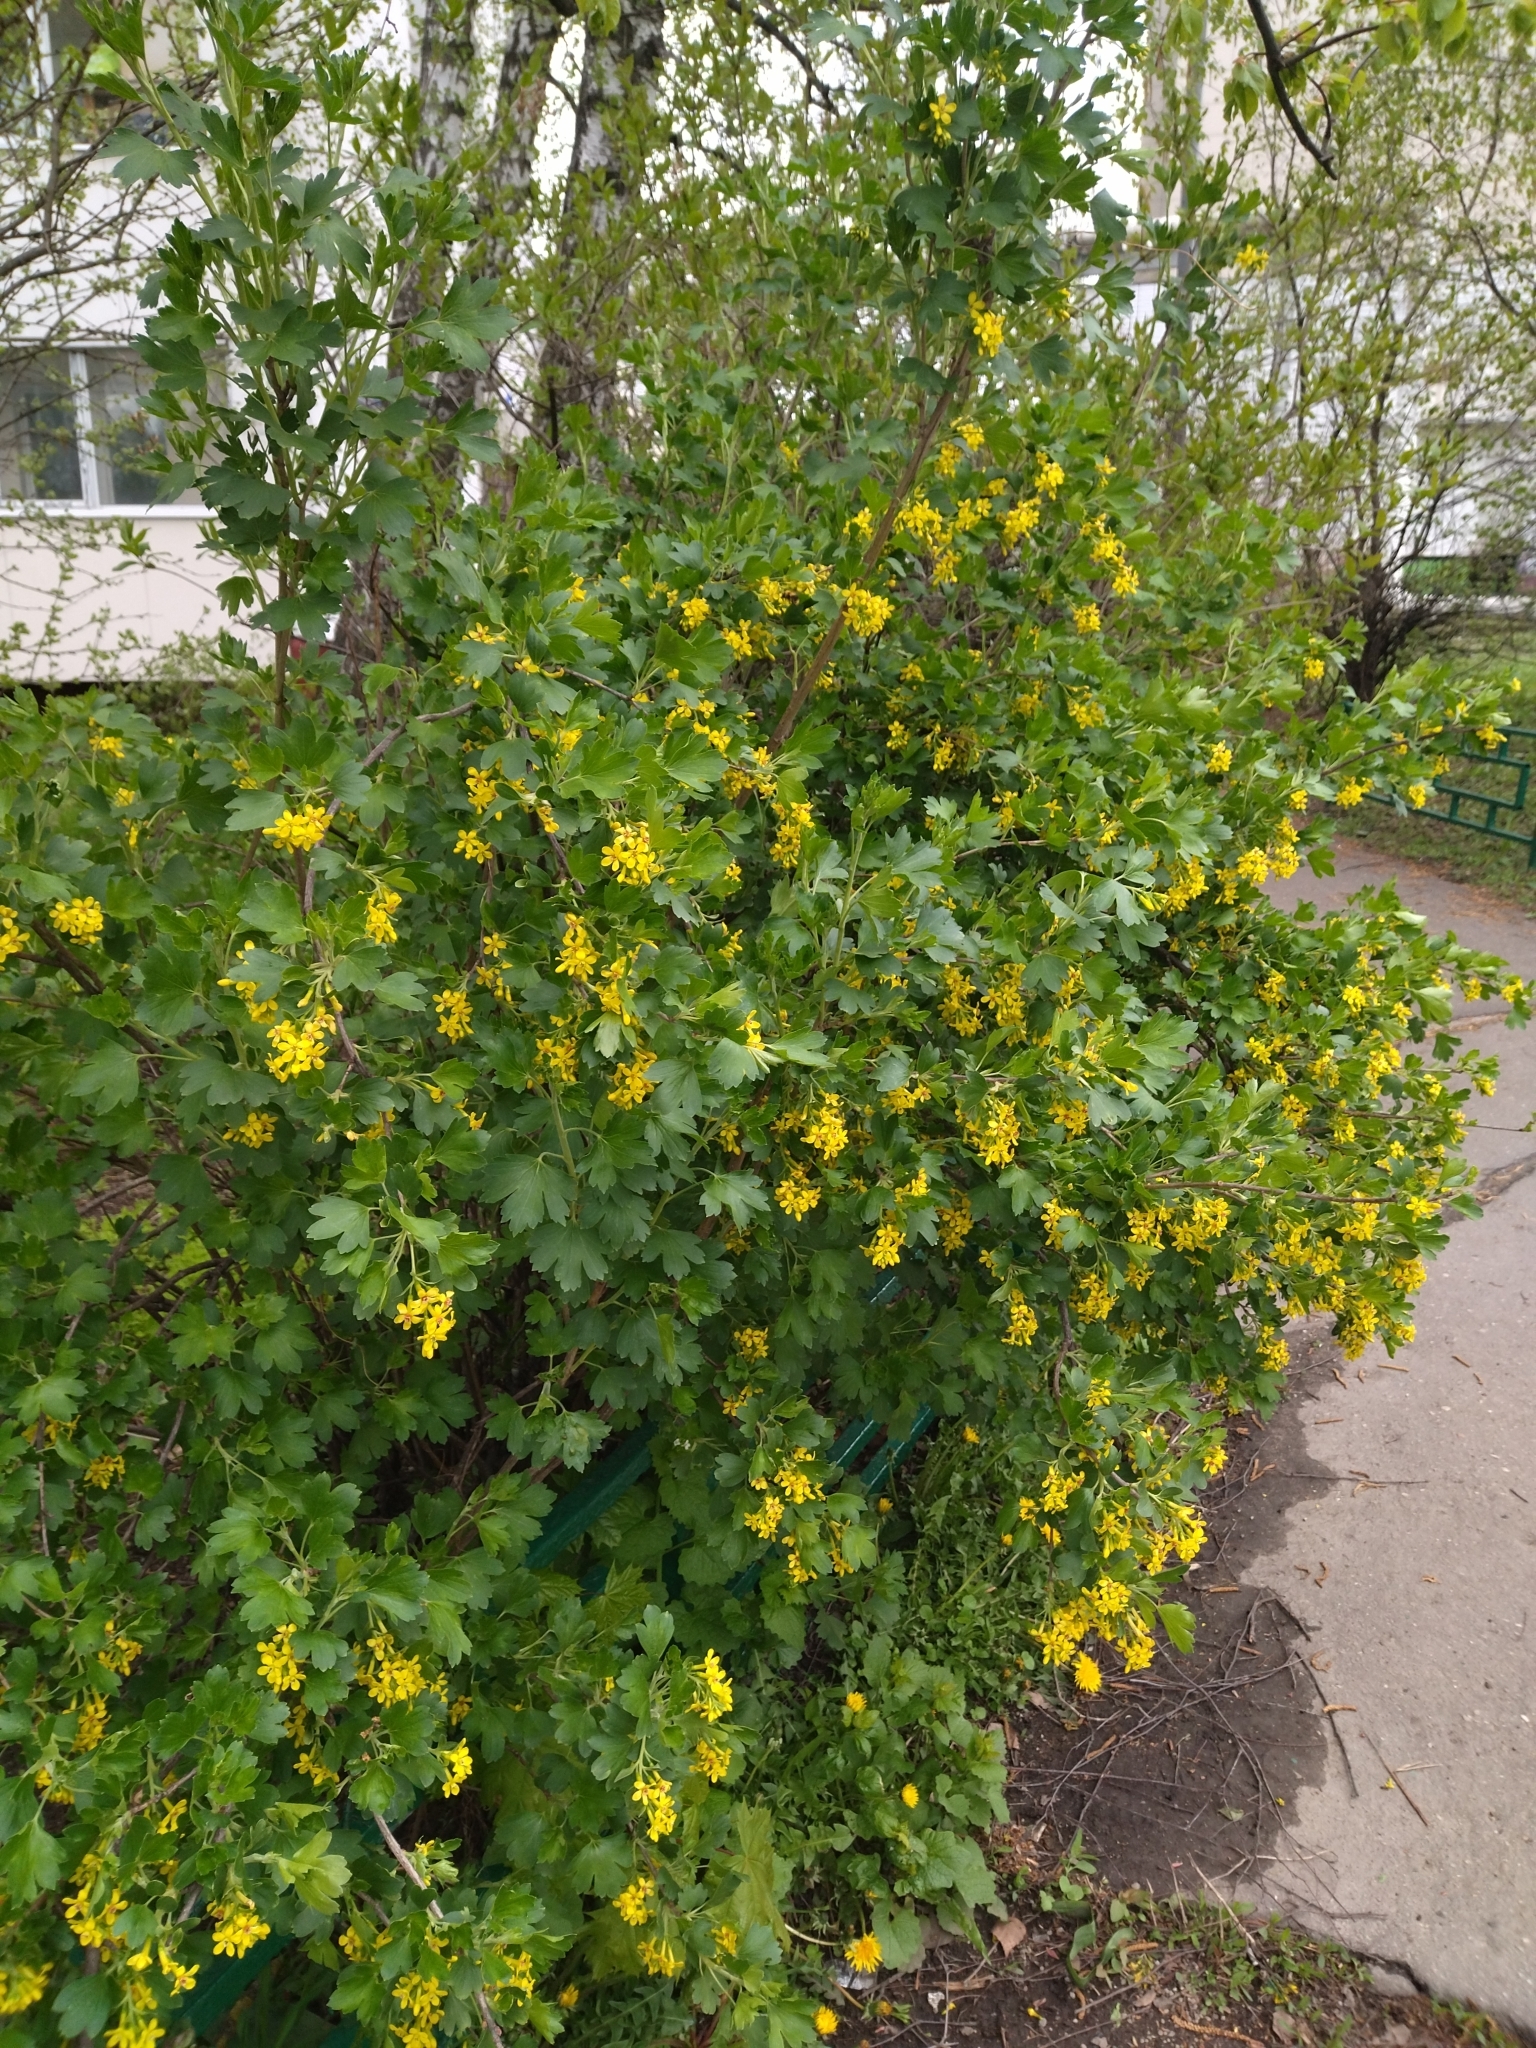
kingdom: Plantae
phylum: Tracheophyta
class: Magnoliopsida
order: Saxifragales
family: Grossulariaceae
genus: Ribes
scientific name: Ribes aureum
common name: Golden currant
